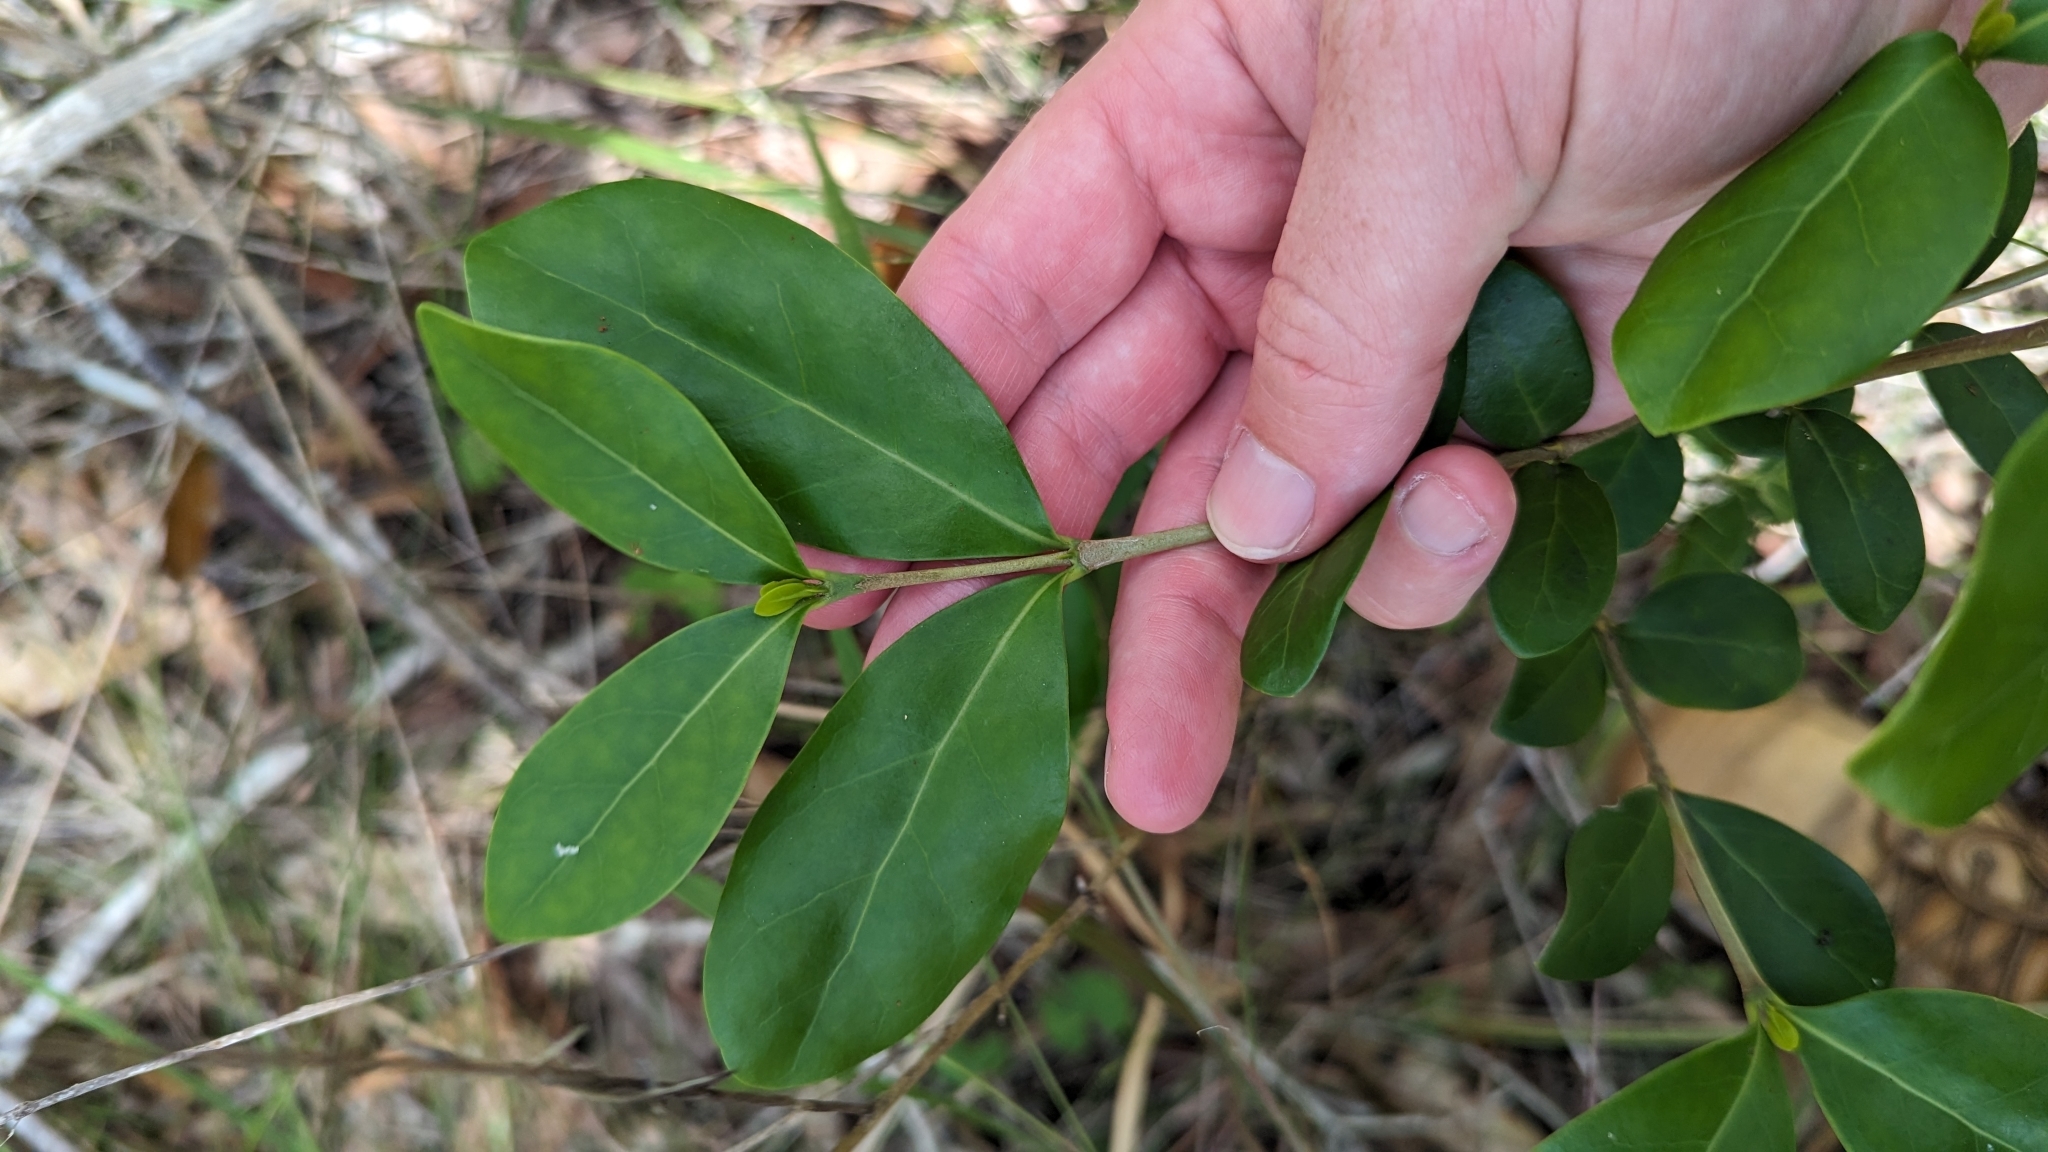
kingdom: Plantae
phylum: Tracheophyta
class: Magnoliopsida
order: Gentianales
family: Rubiaceae
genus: Cyclophyllum
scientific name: Cyclophyllum coprosmoides
